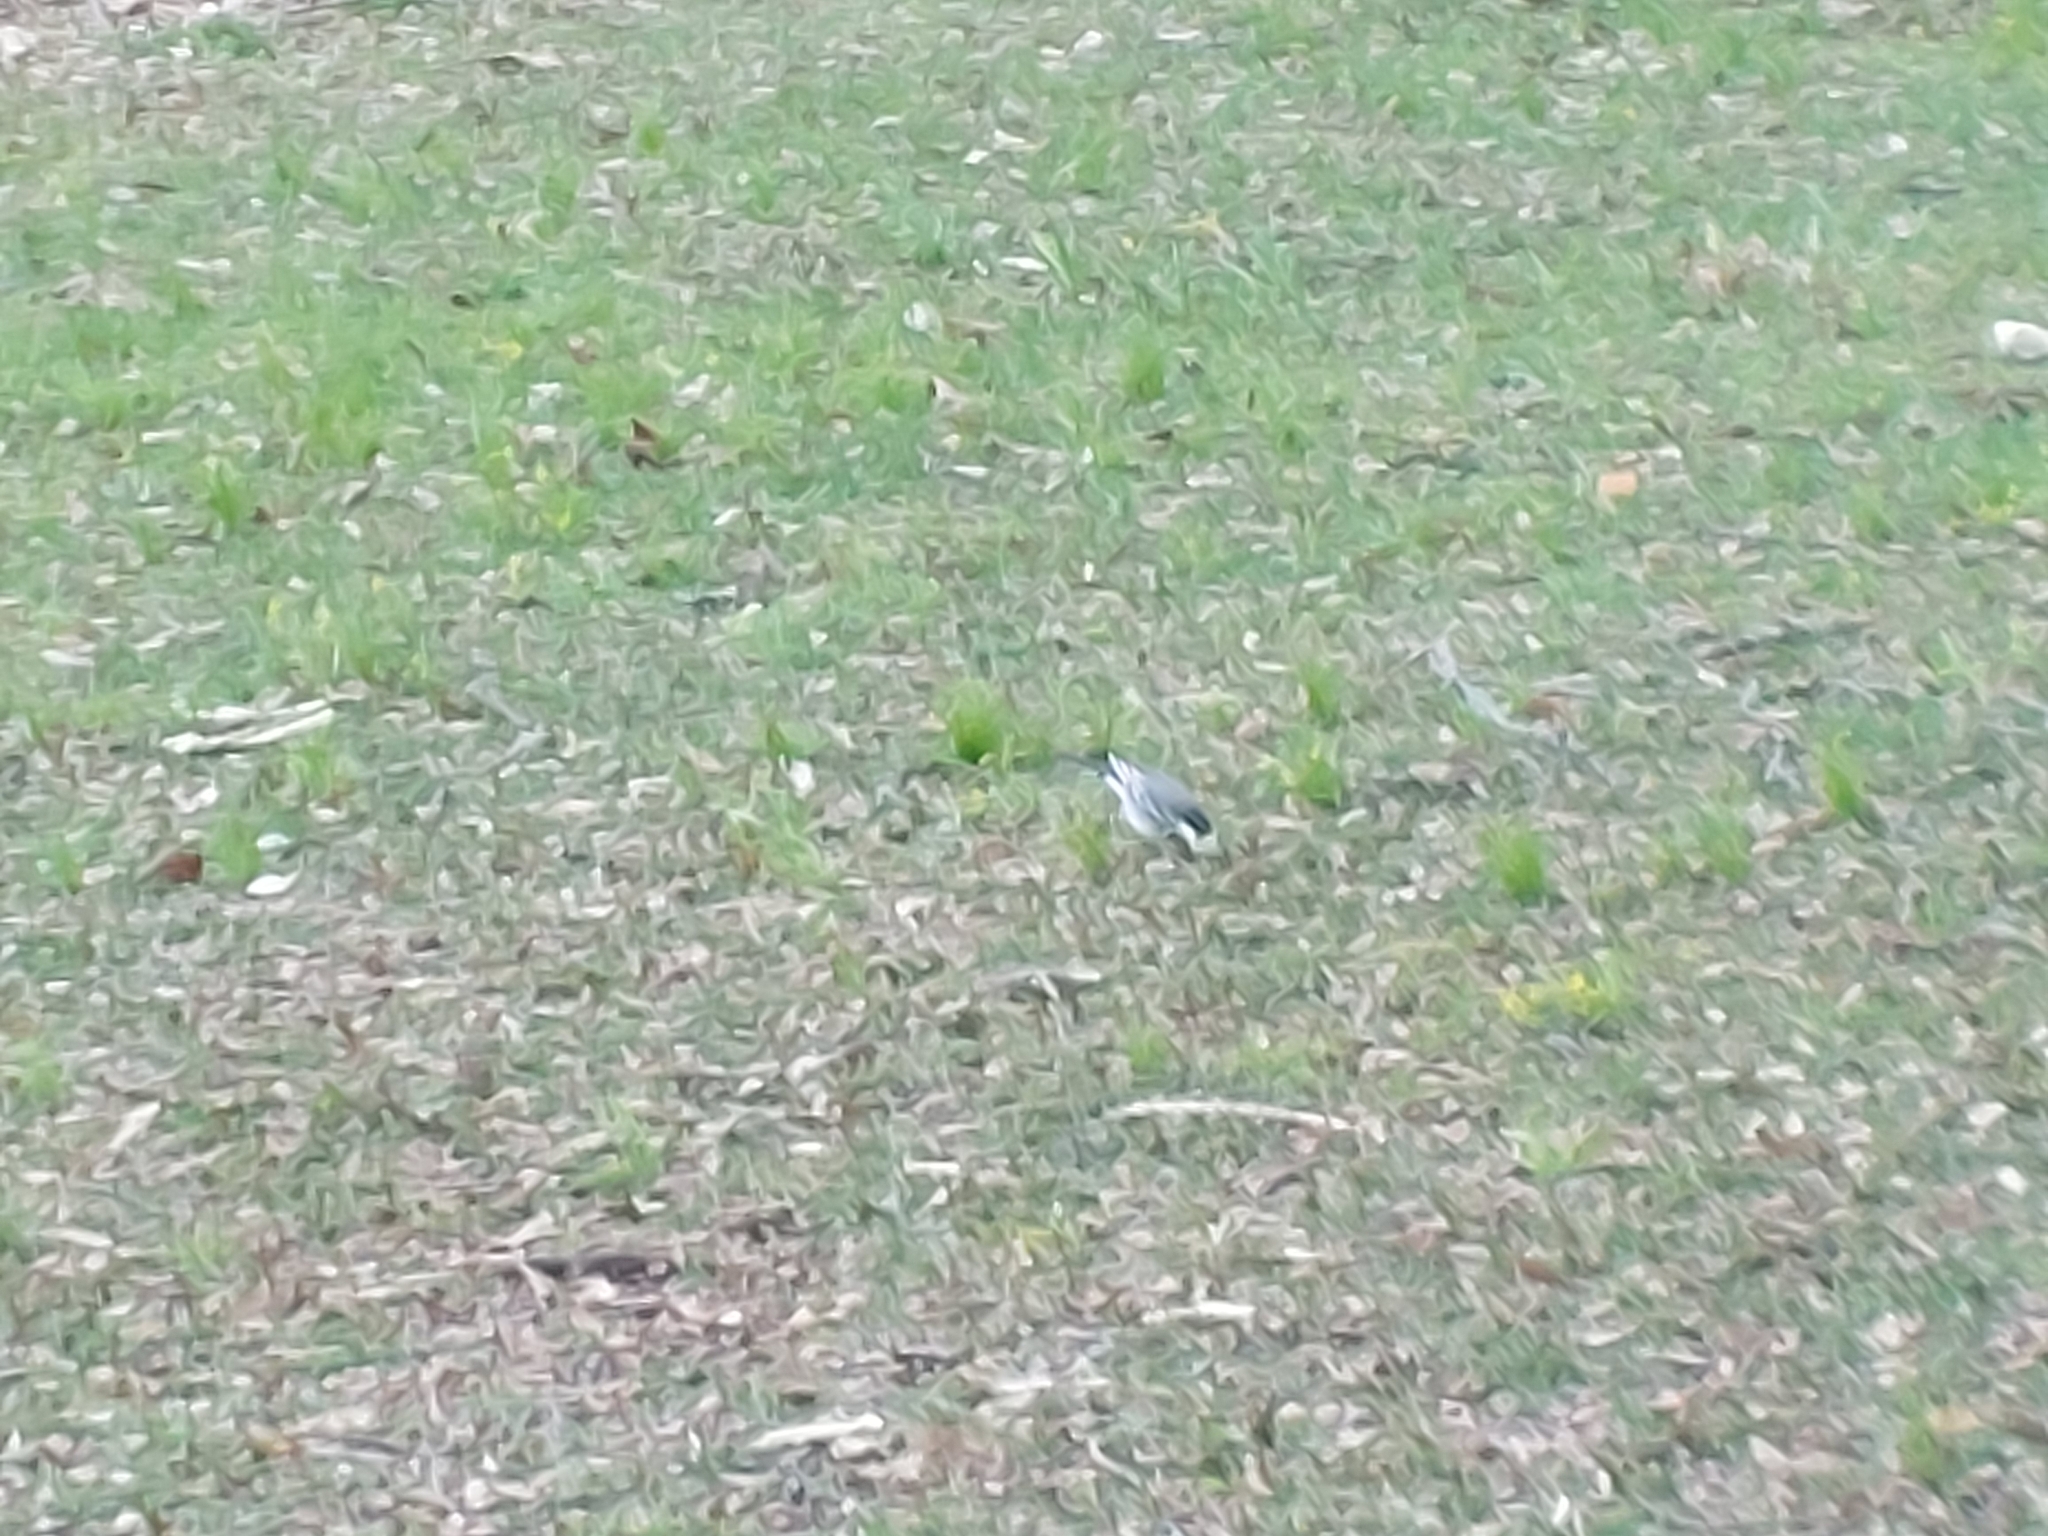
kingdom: Animalia
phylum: Chordata
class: Aves
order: Passeriformes
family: Motacillidae
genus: Motacilla
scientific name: Motacilla alba
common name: White wagtail
